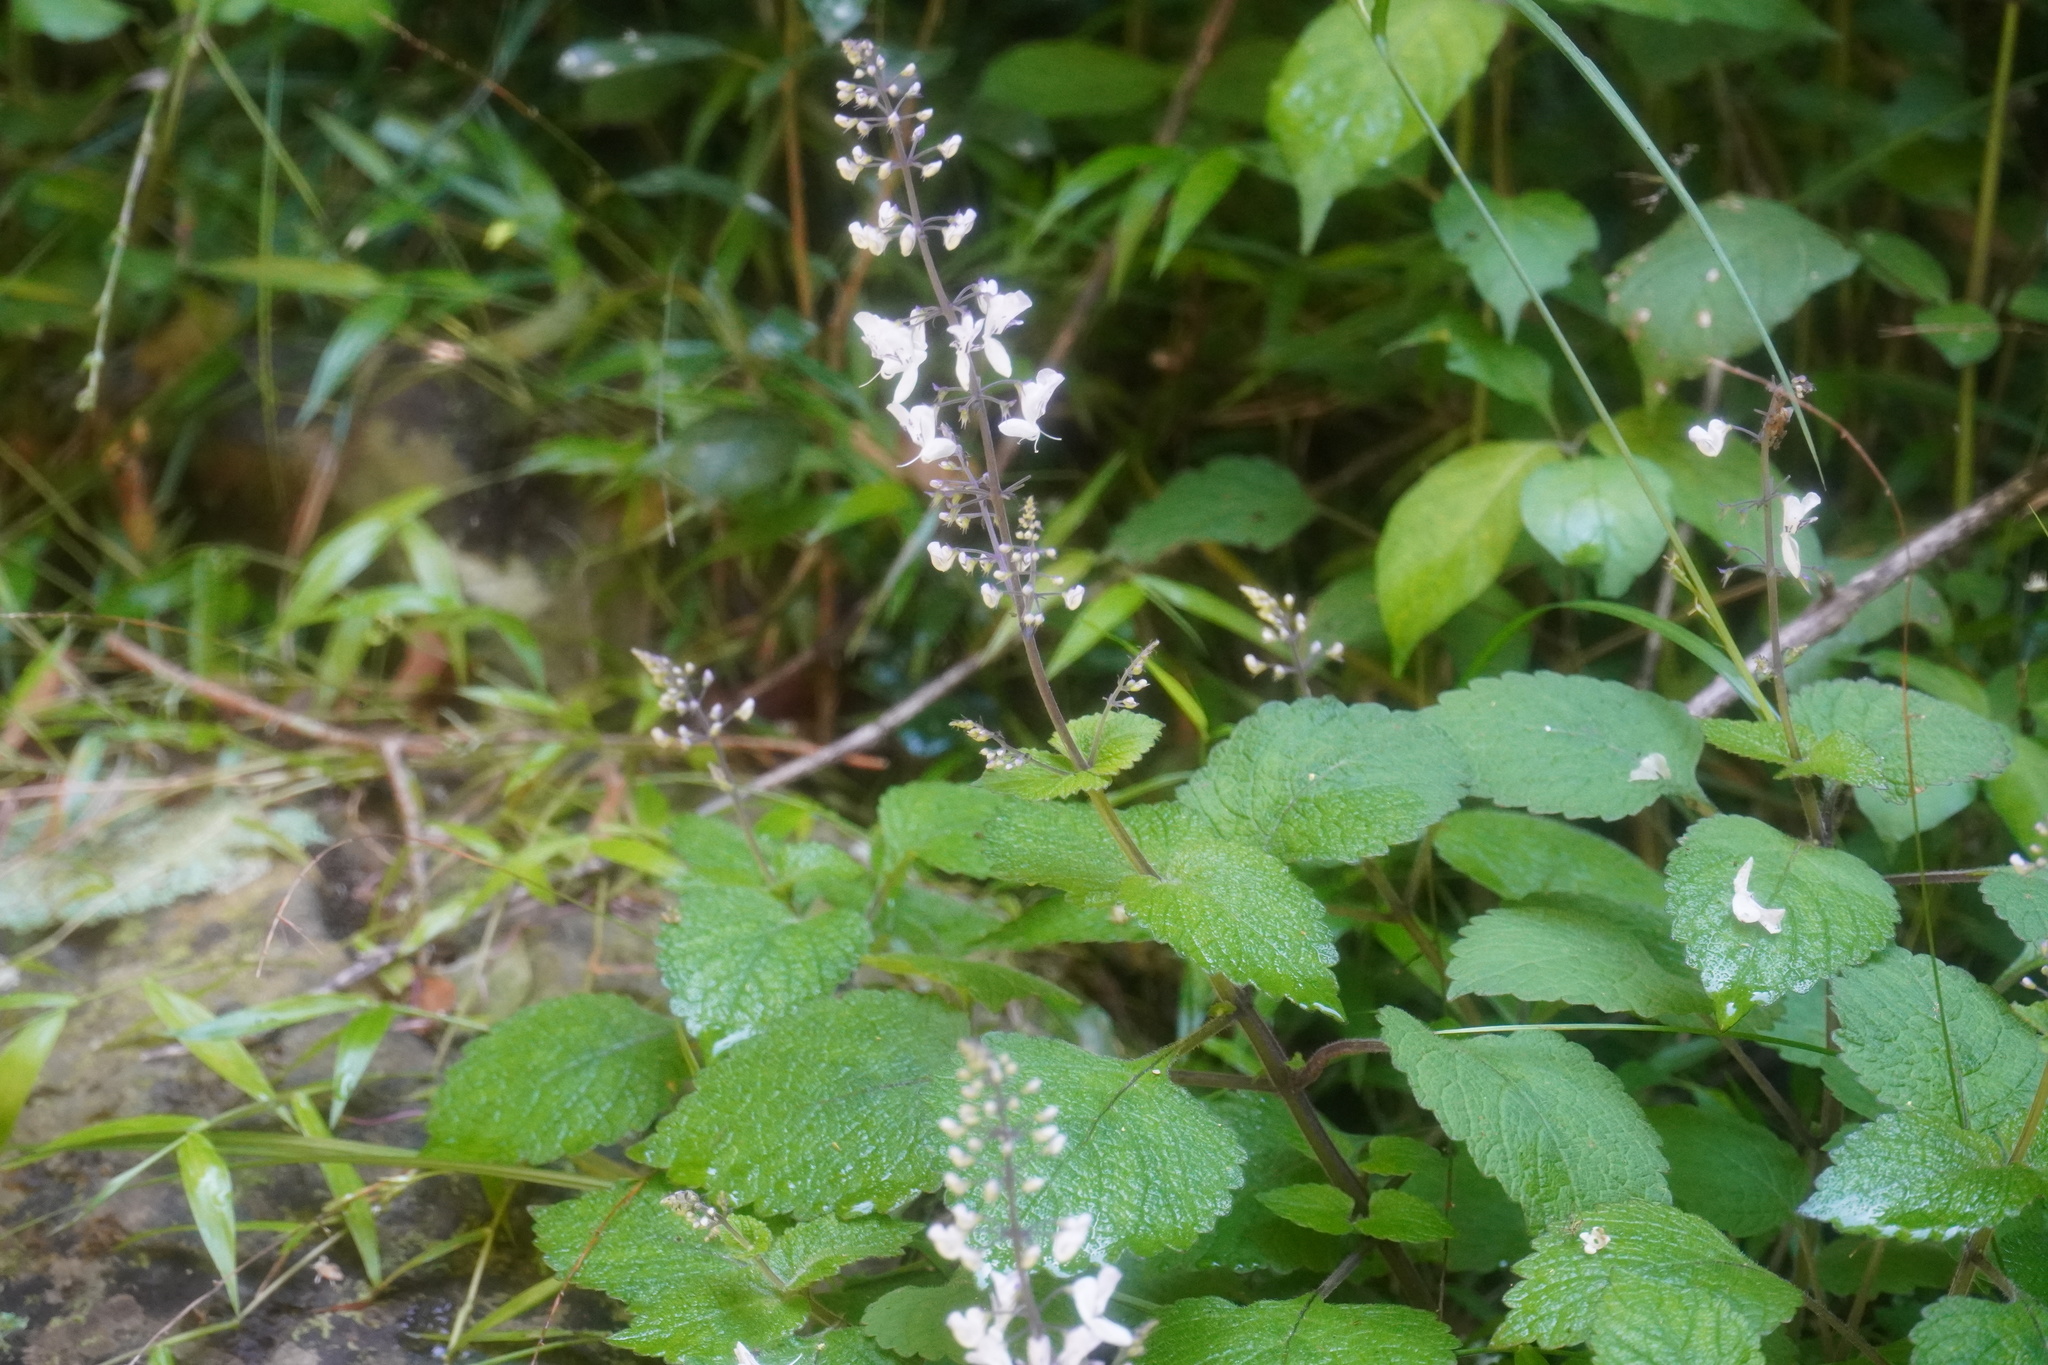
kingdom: Plantae
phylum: Tracheophyta
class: Magnoliopsida
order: Lamiales
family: Lamiaceae
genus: Plectranthus
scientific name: Plectranthus grallatus
